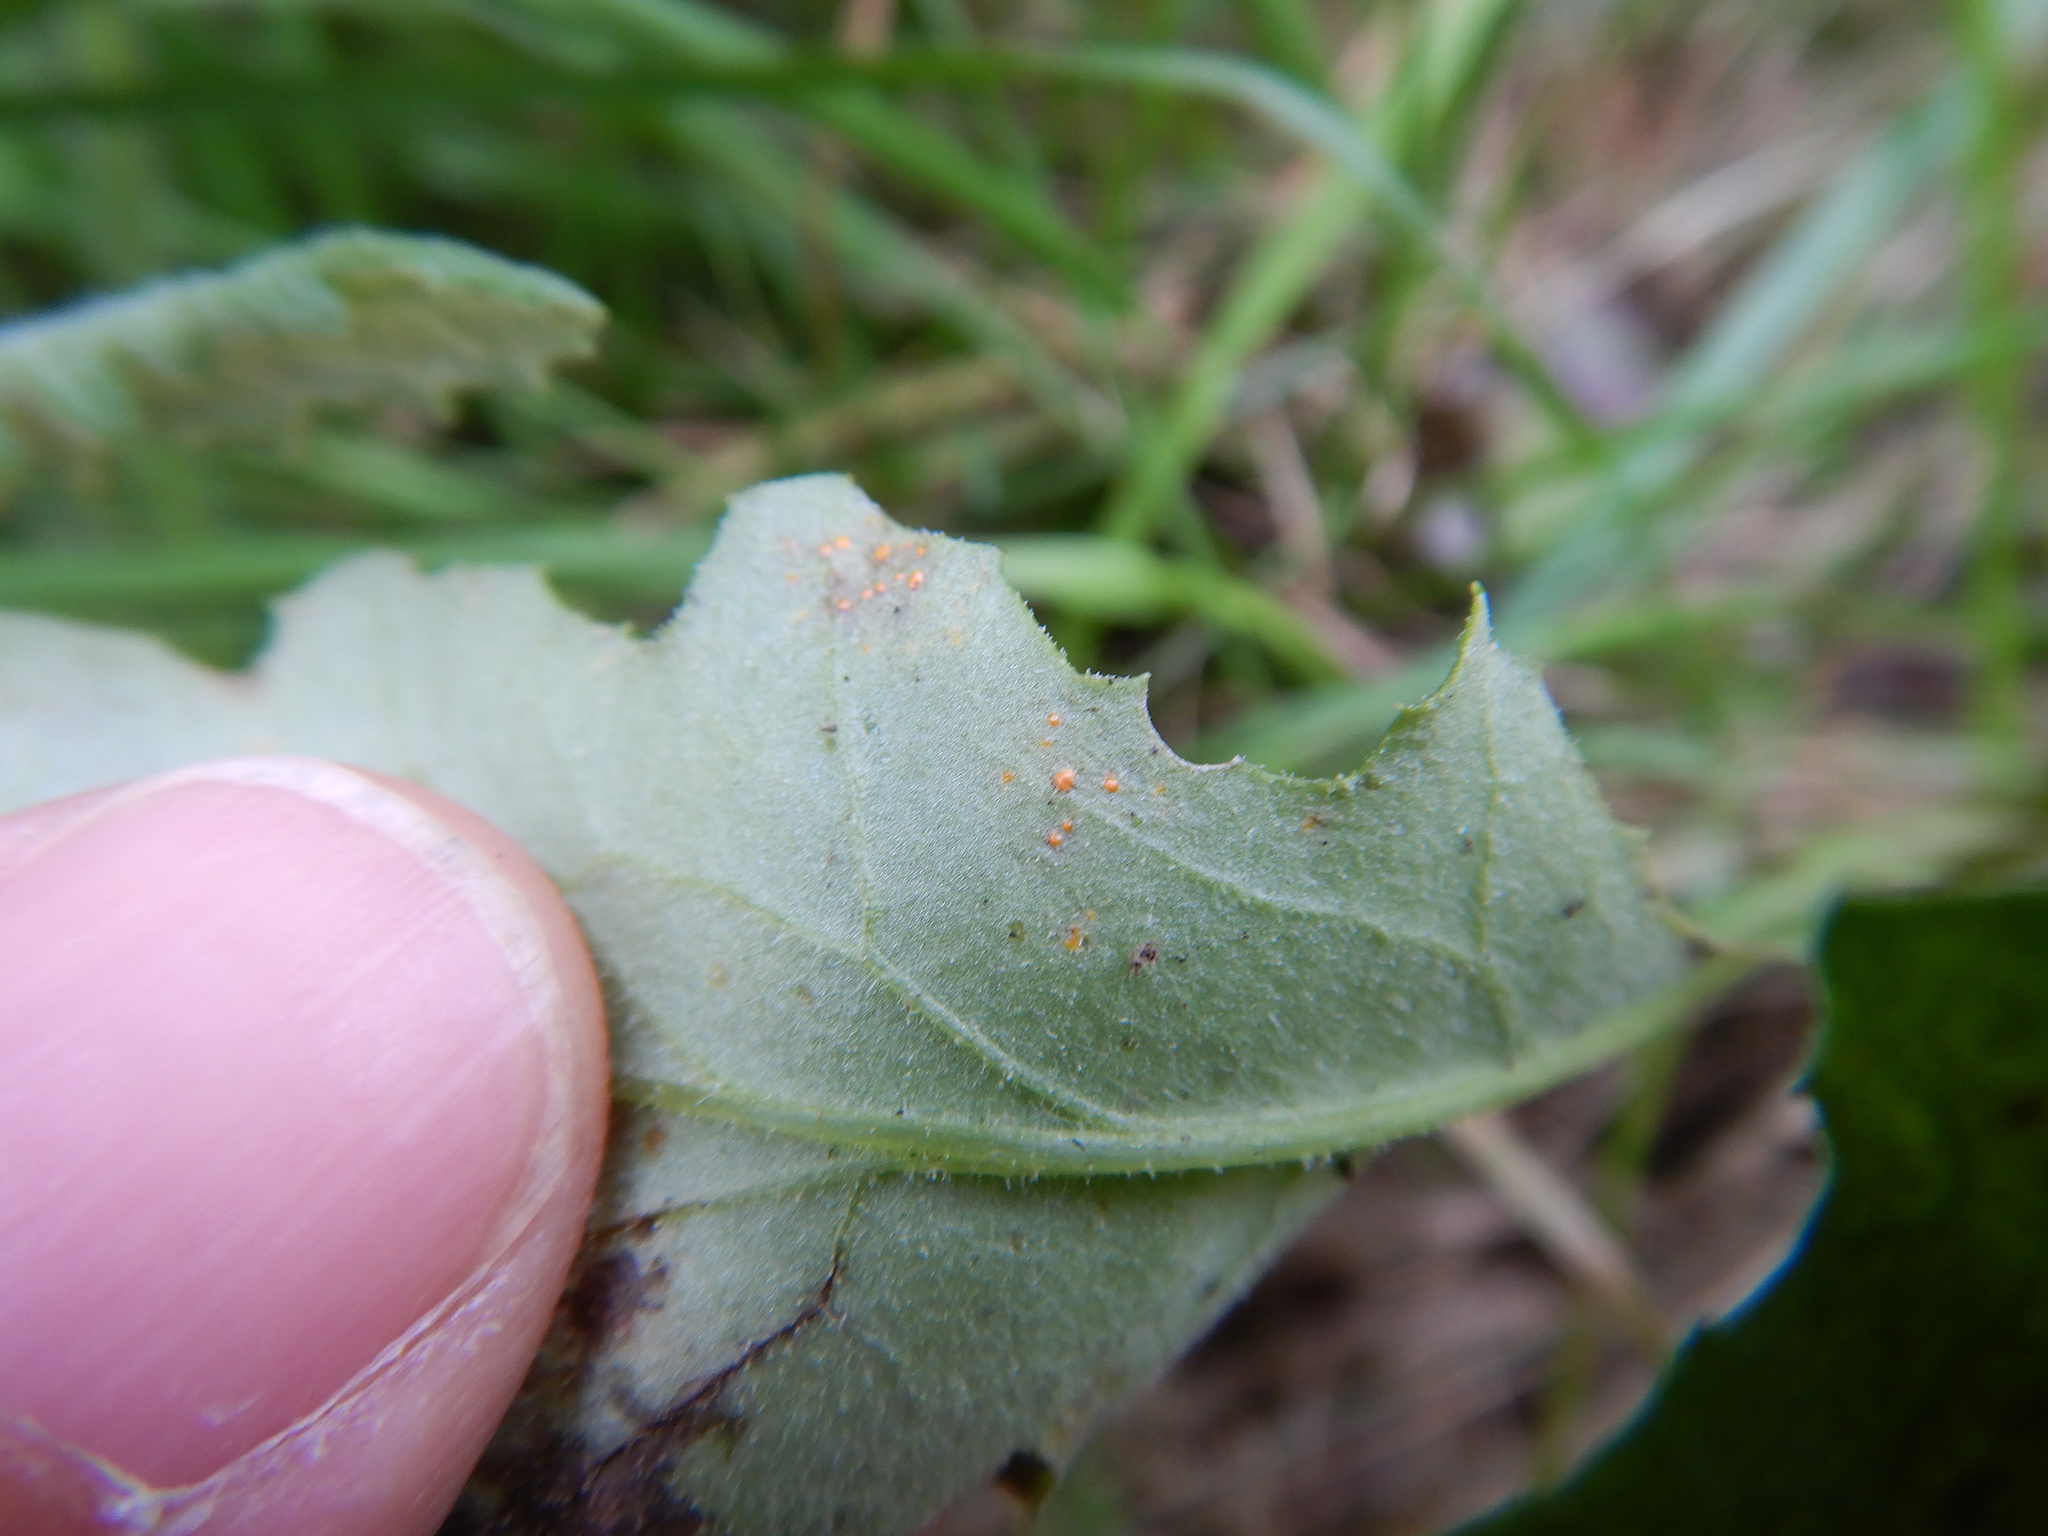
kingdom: Fungi
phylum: Basidiomycota
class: Pucciniomycetes
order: Pucciniales
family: Coleosporiaceae
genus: Coleosporium
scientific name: Coleosporium tussilaginis
